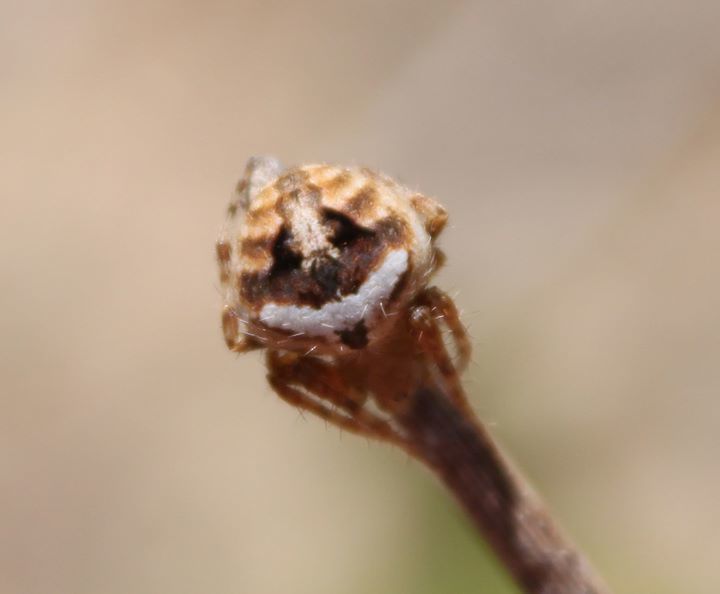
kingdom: Animalia
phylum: Arthropoda
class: Arachnida
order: Araneae
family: Araneidae
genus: Neoscona
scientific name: Neoscona subfusca
